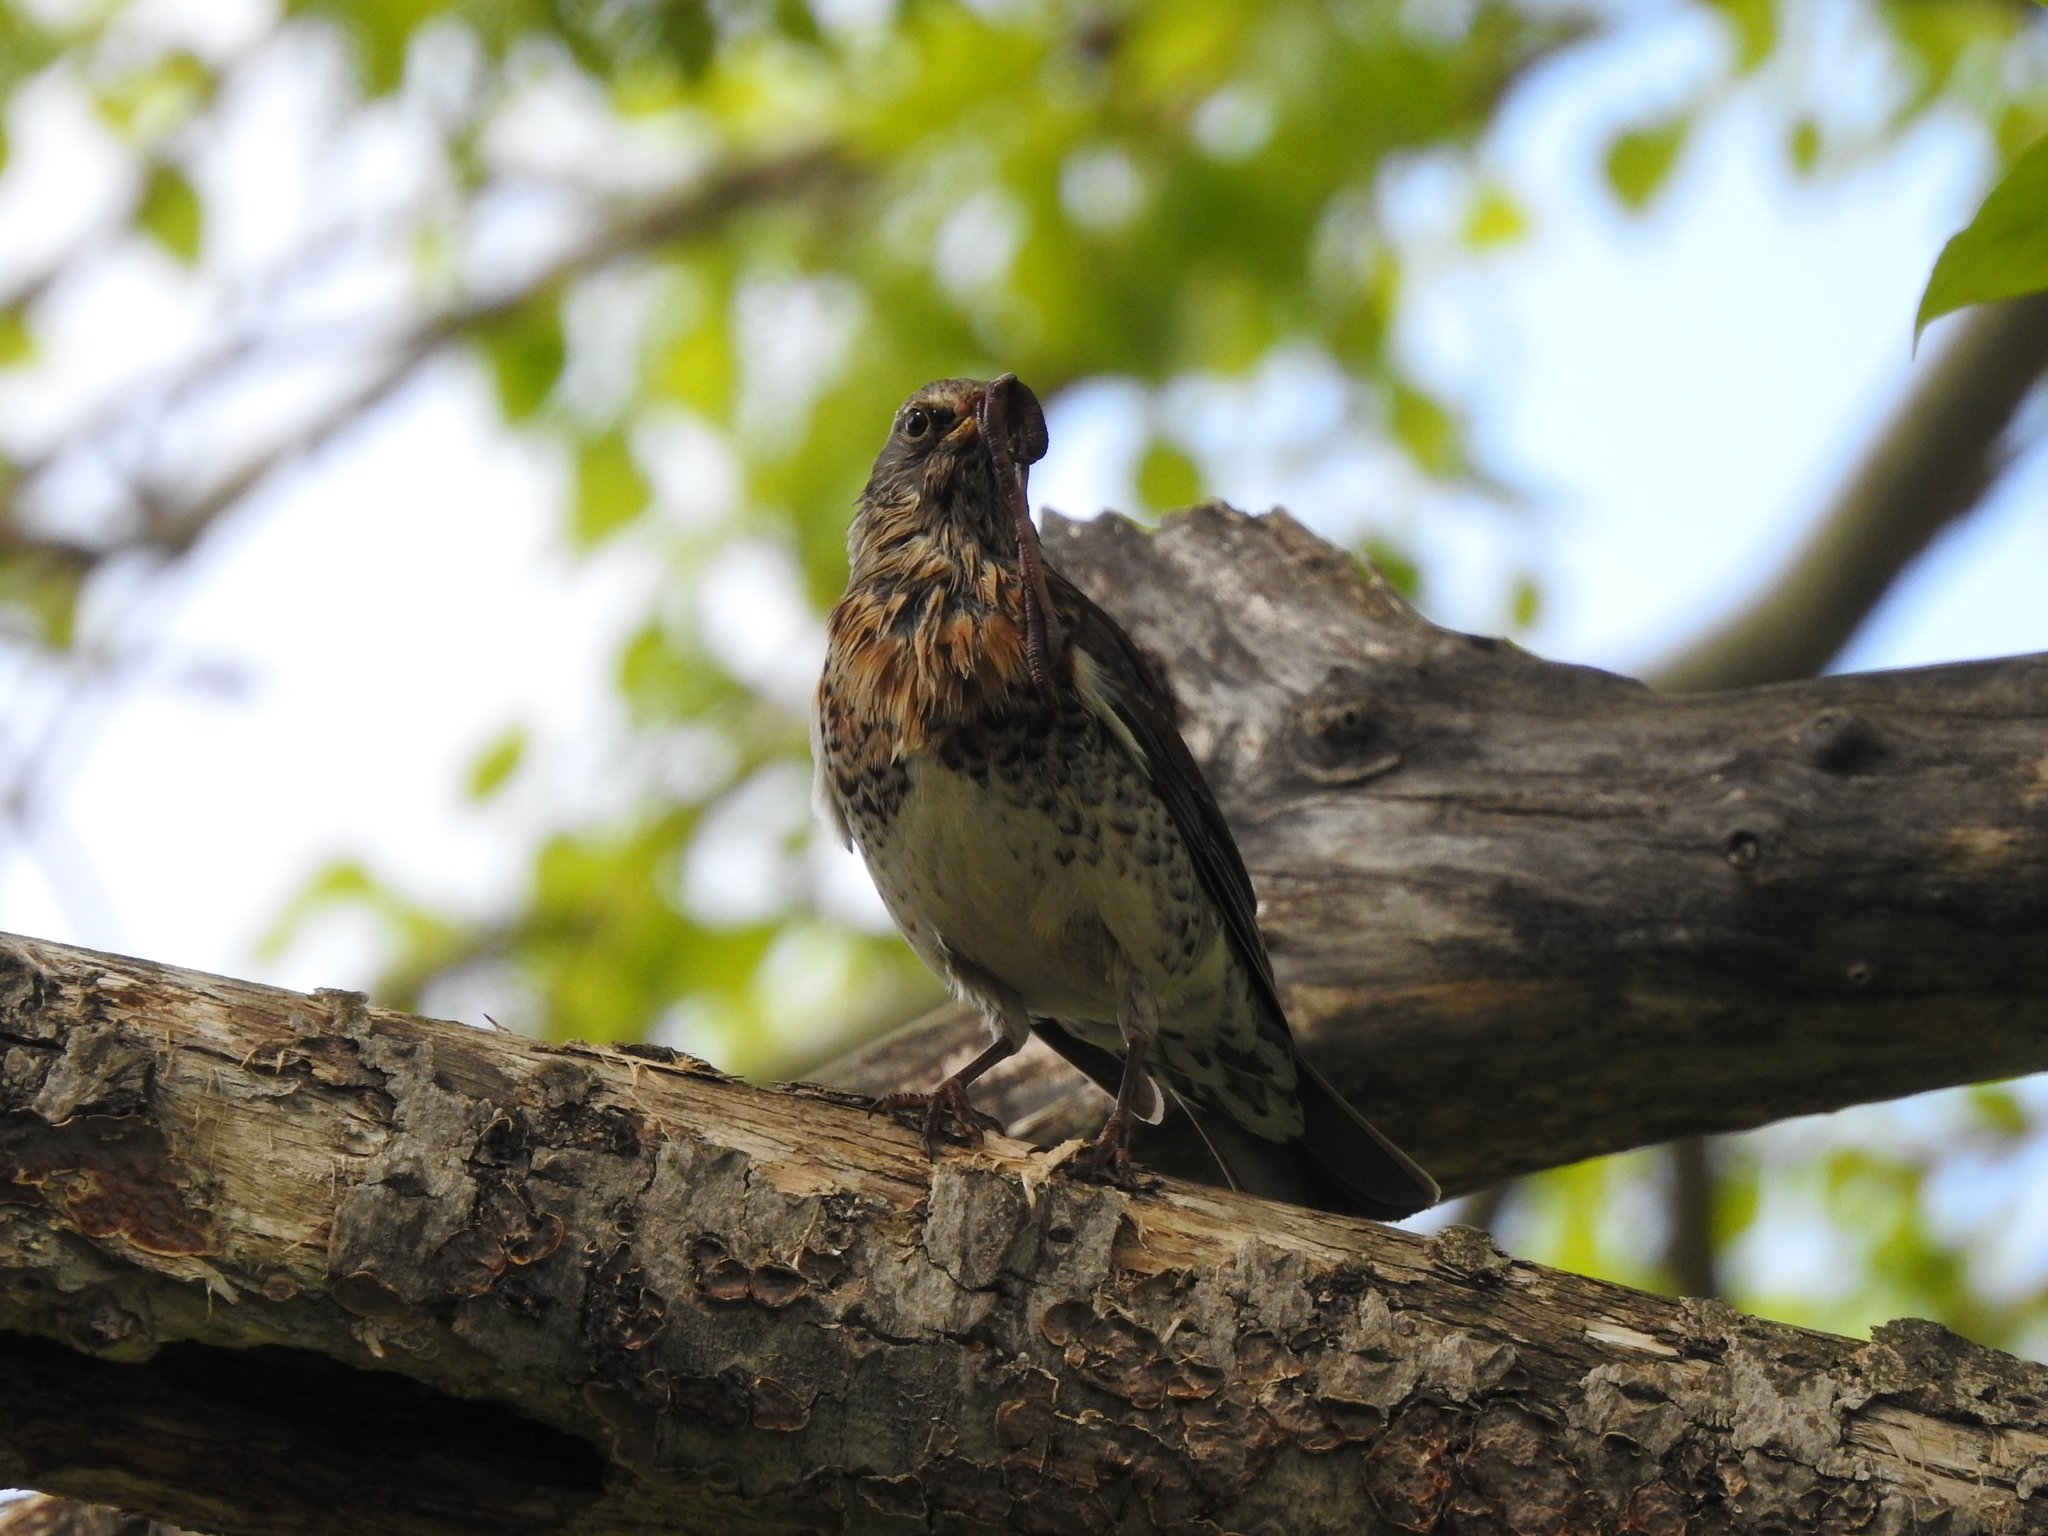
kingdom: Animalia
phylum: Chordata
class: Aves
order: Passeriformes
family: Turdidae
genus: Turdus
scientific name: Turdus pilaris
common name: Fieldfare
